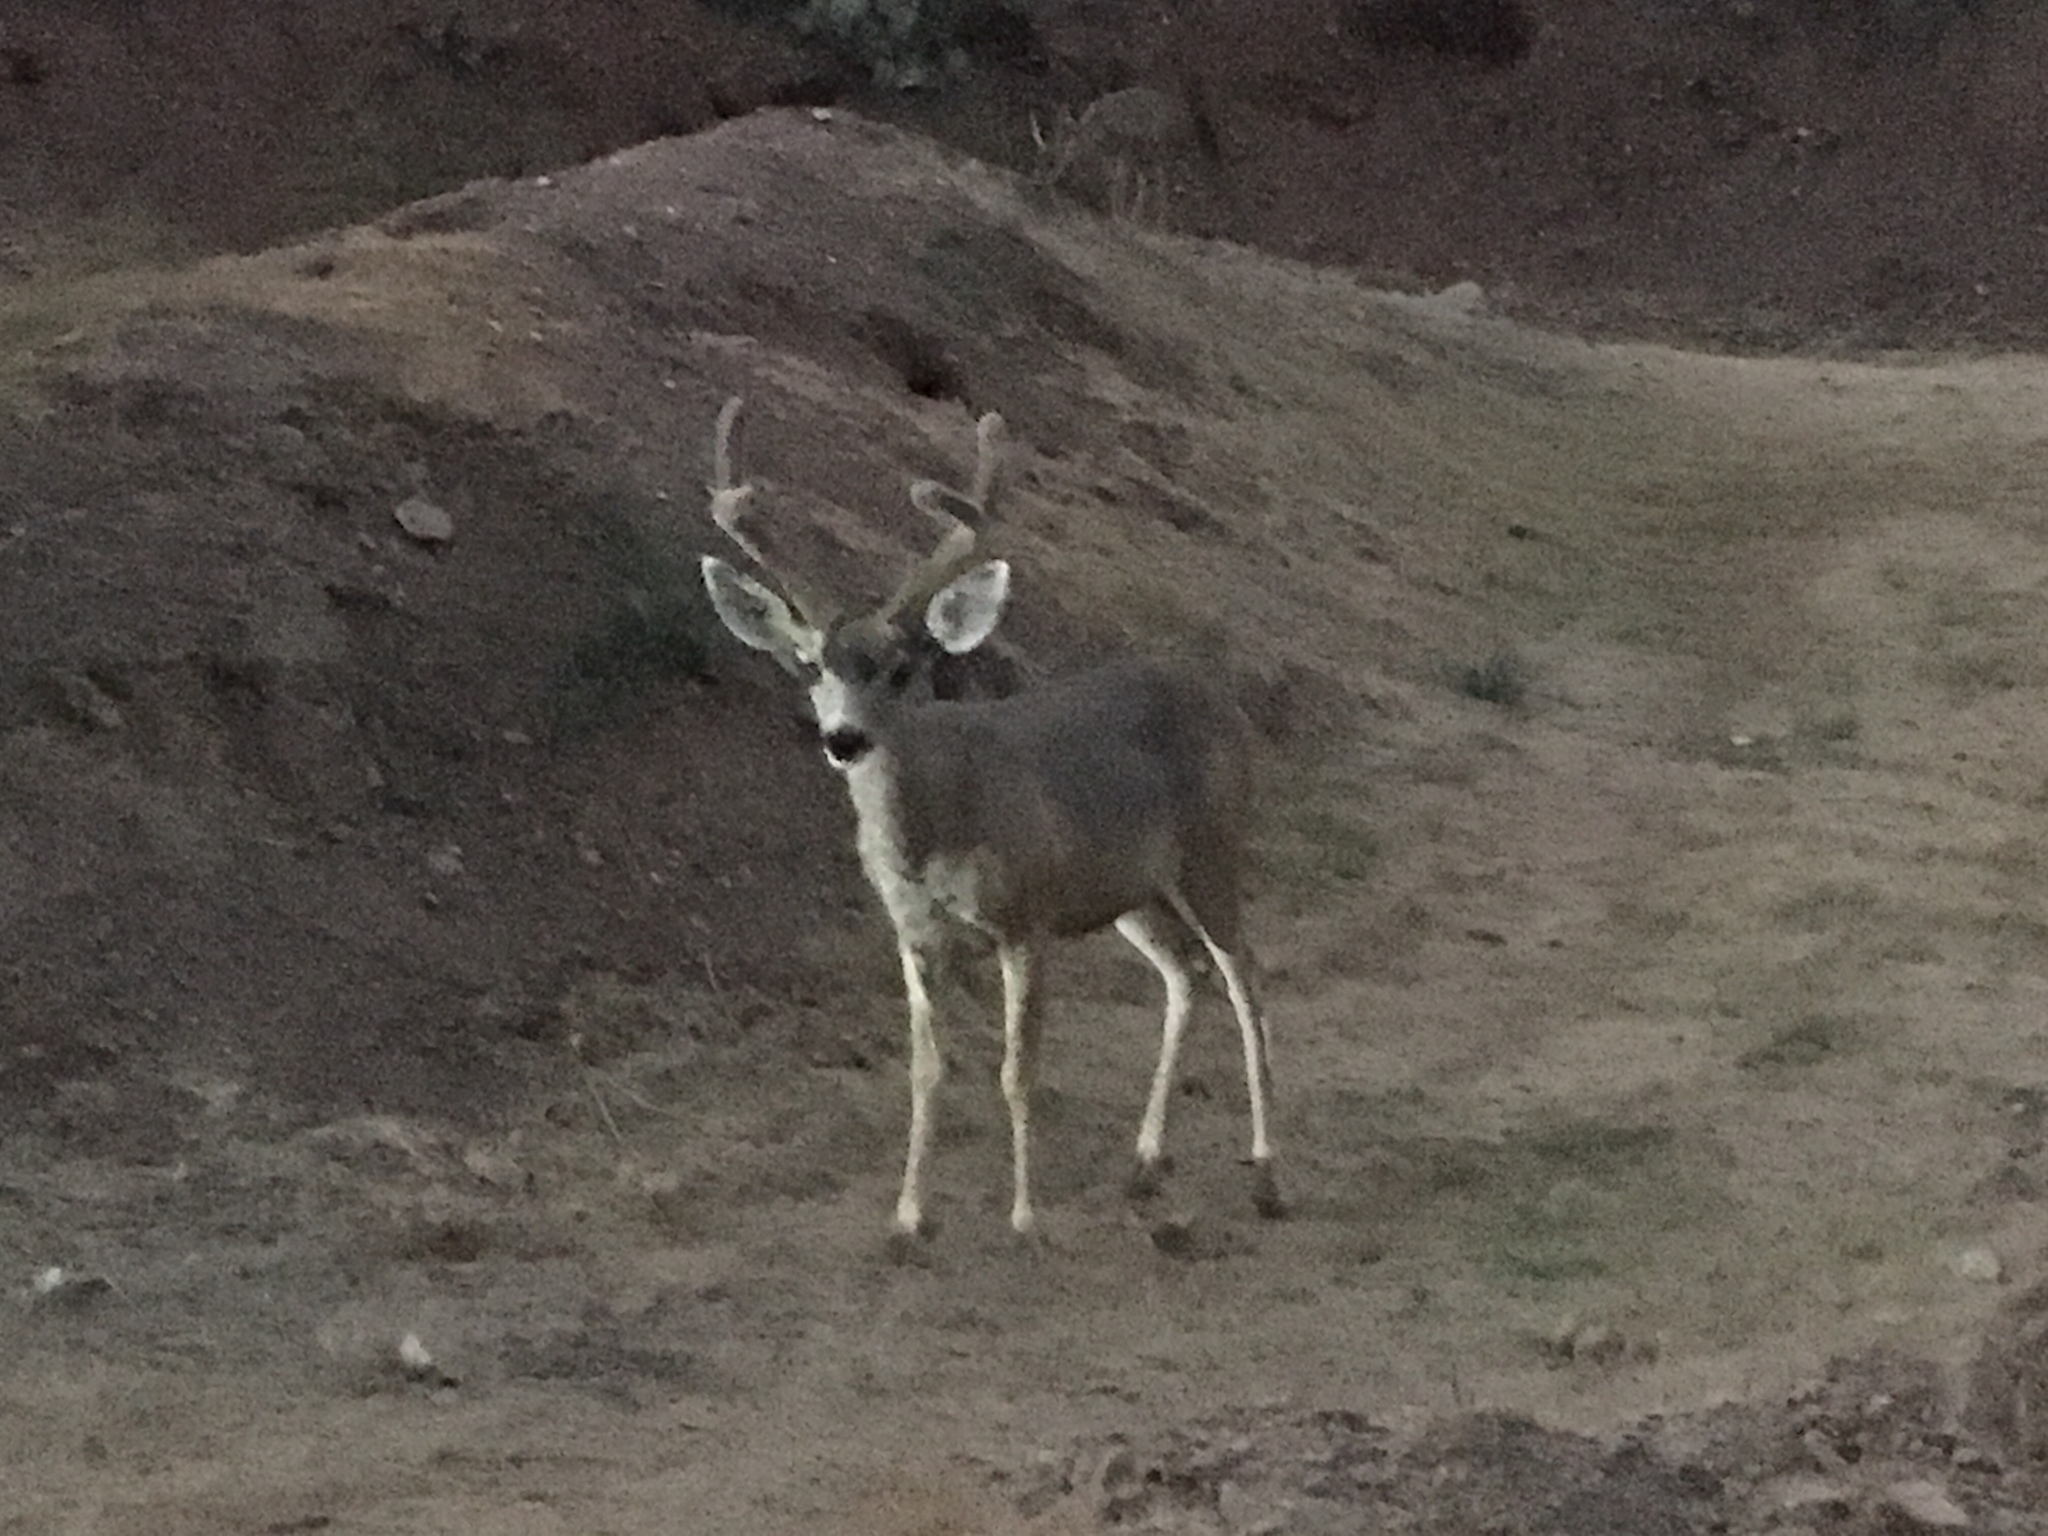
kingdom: Animalia
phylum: Chordata
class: Mammalia
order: Artiodactyla
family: Cervidae
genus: Odocoileus
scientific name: Odocoileus hemionus
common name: Mule deer
